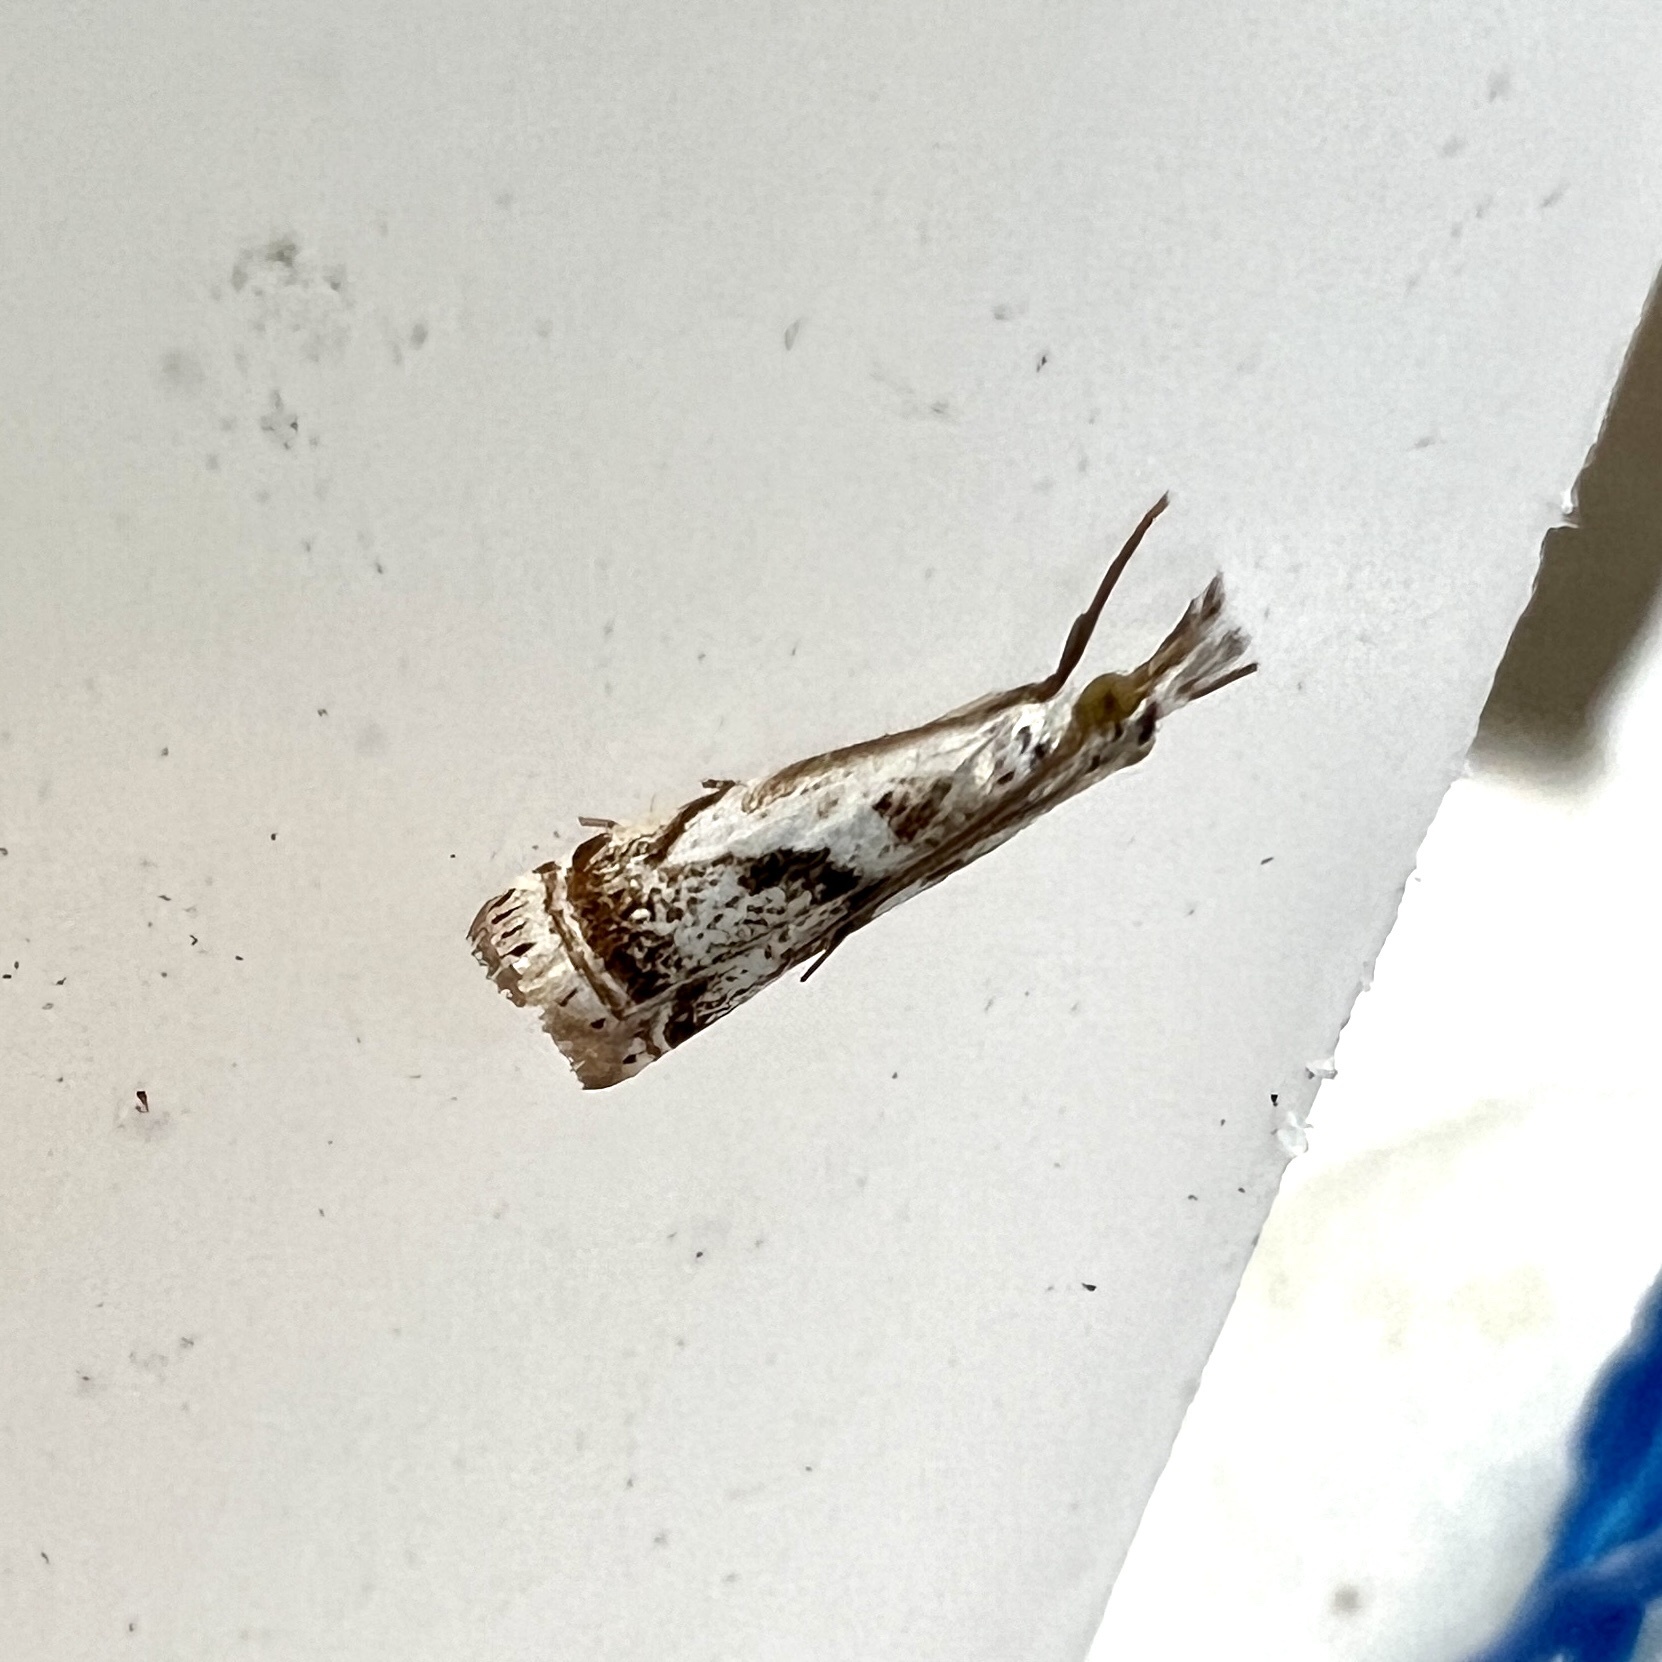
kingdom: Animalia
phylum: Arthropoda
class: Insecta
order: Lepidoptera
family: Crambidae
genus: Microcrambus
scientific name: Microcrambus elegans
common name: Elegant grass-veneer
